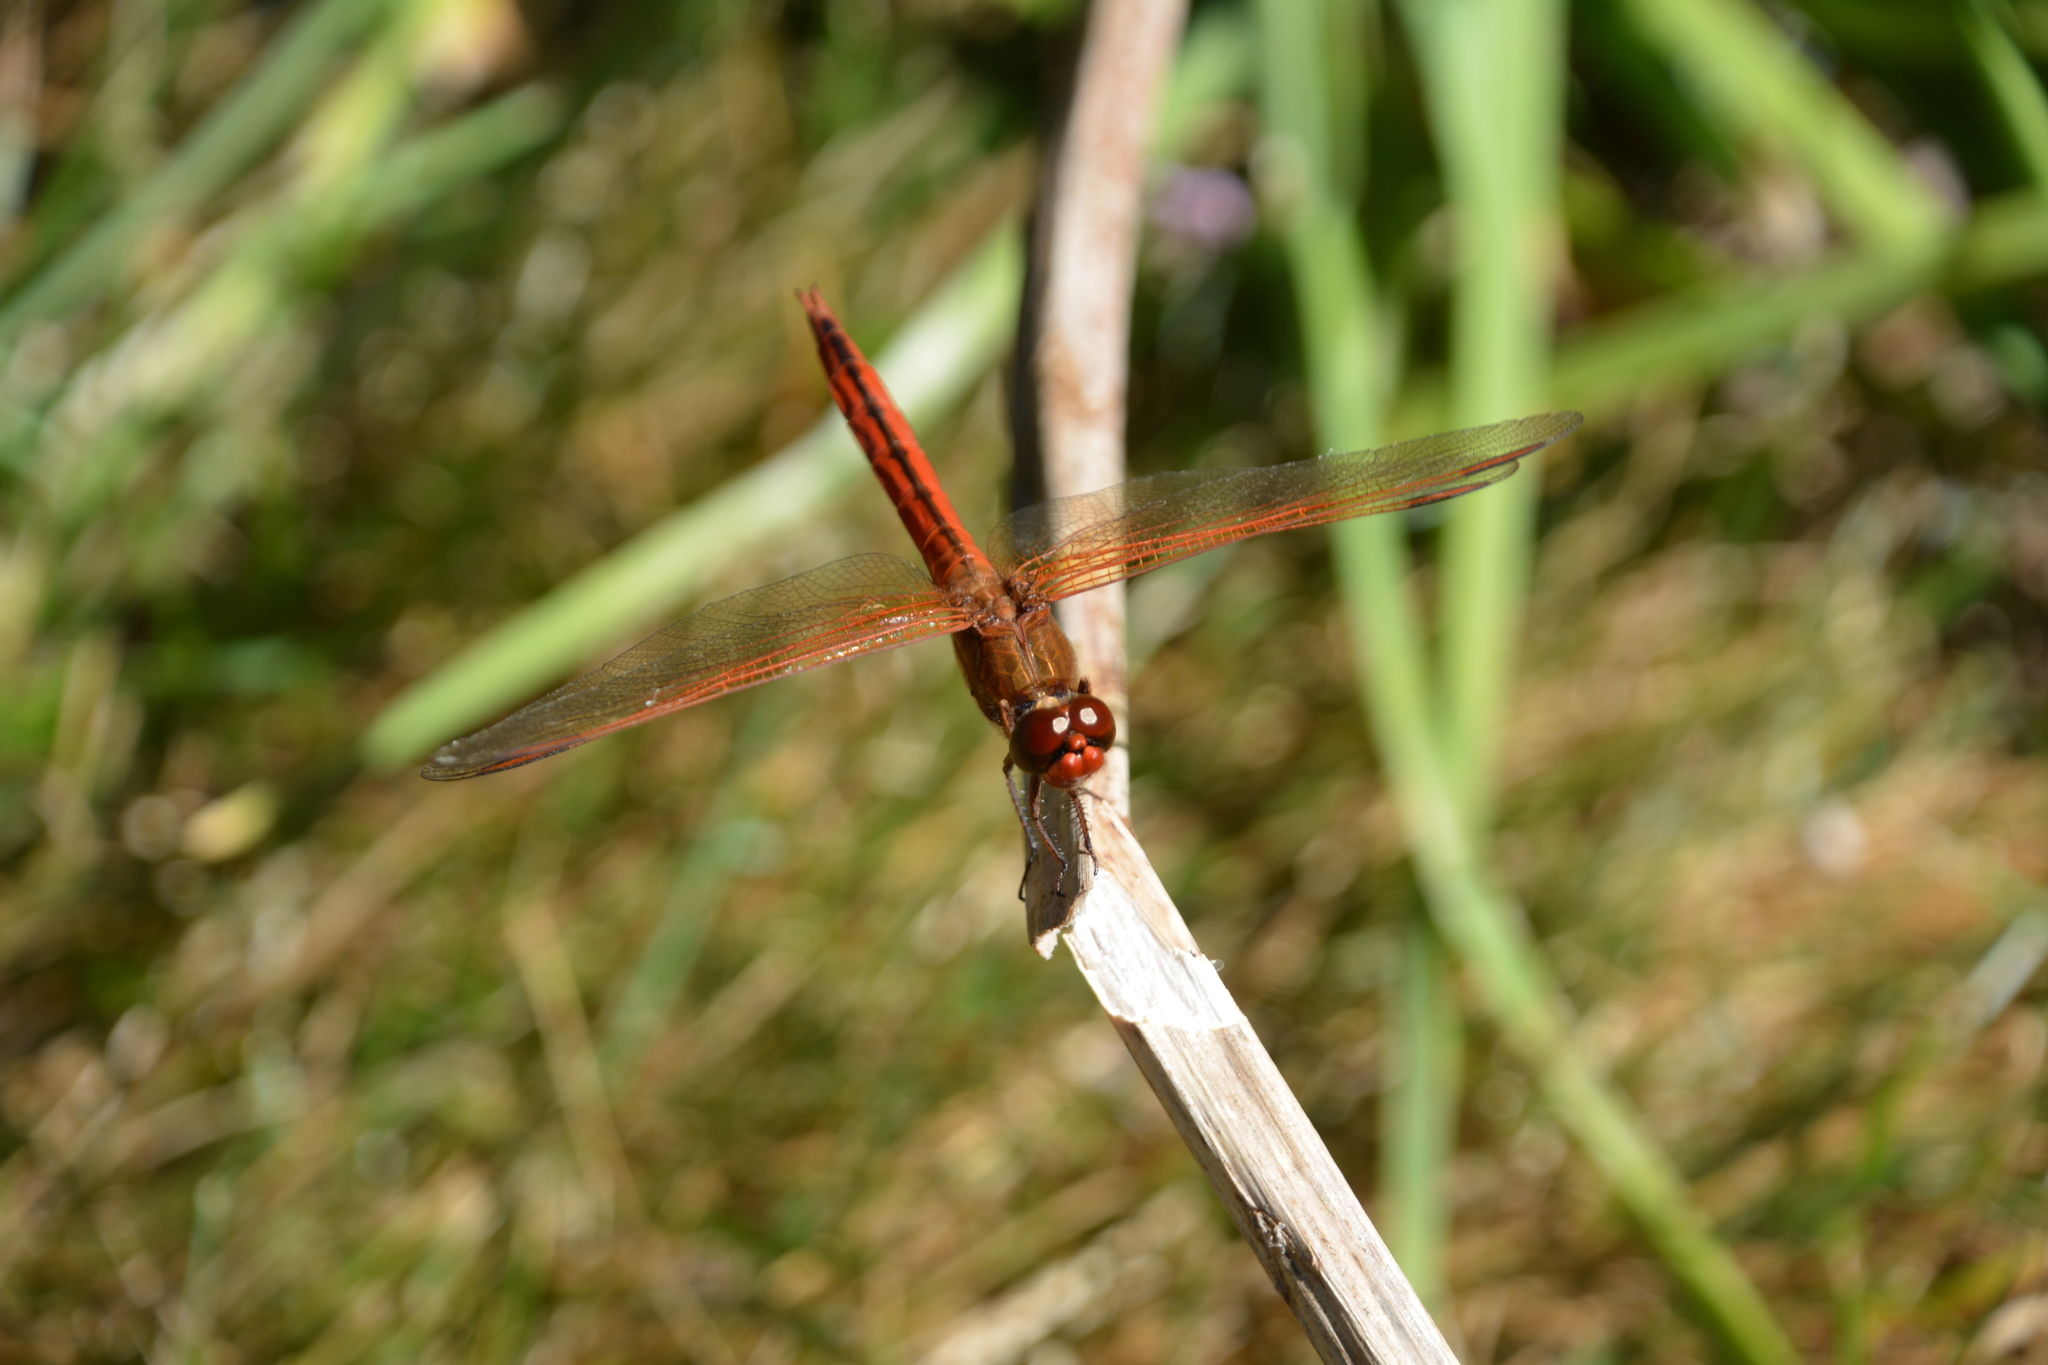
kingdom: Animalia
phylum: Arthropoda
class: Insecta
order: Odonata
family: Libellulidae
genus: Libellula
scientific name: Libellula needhami
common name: Needham's skimmer
